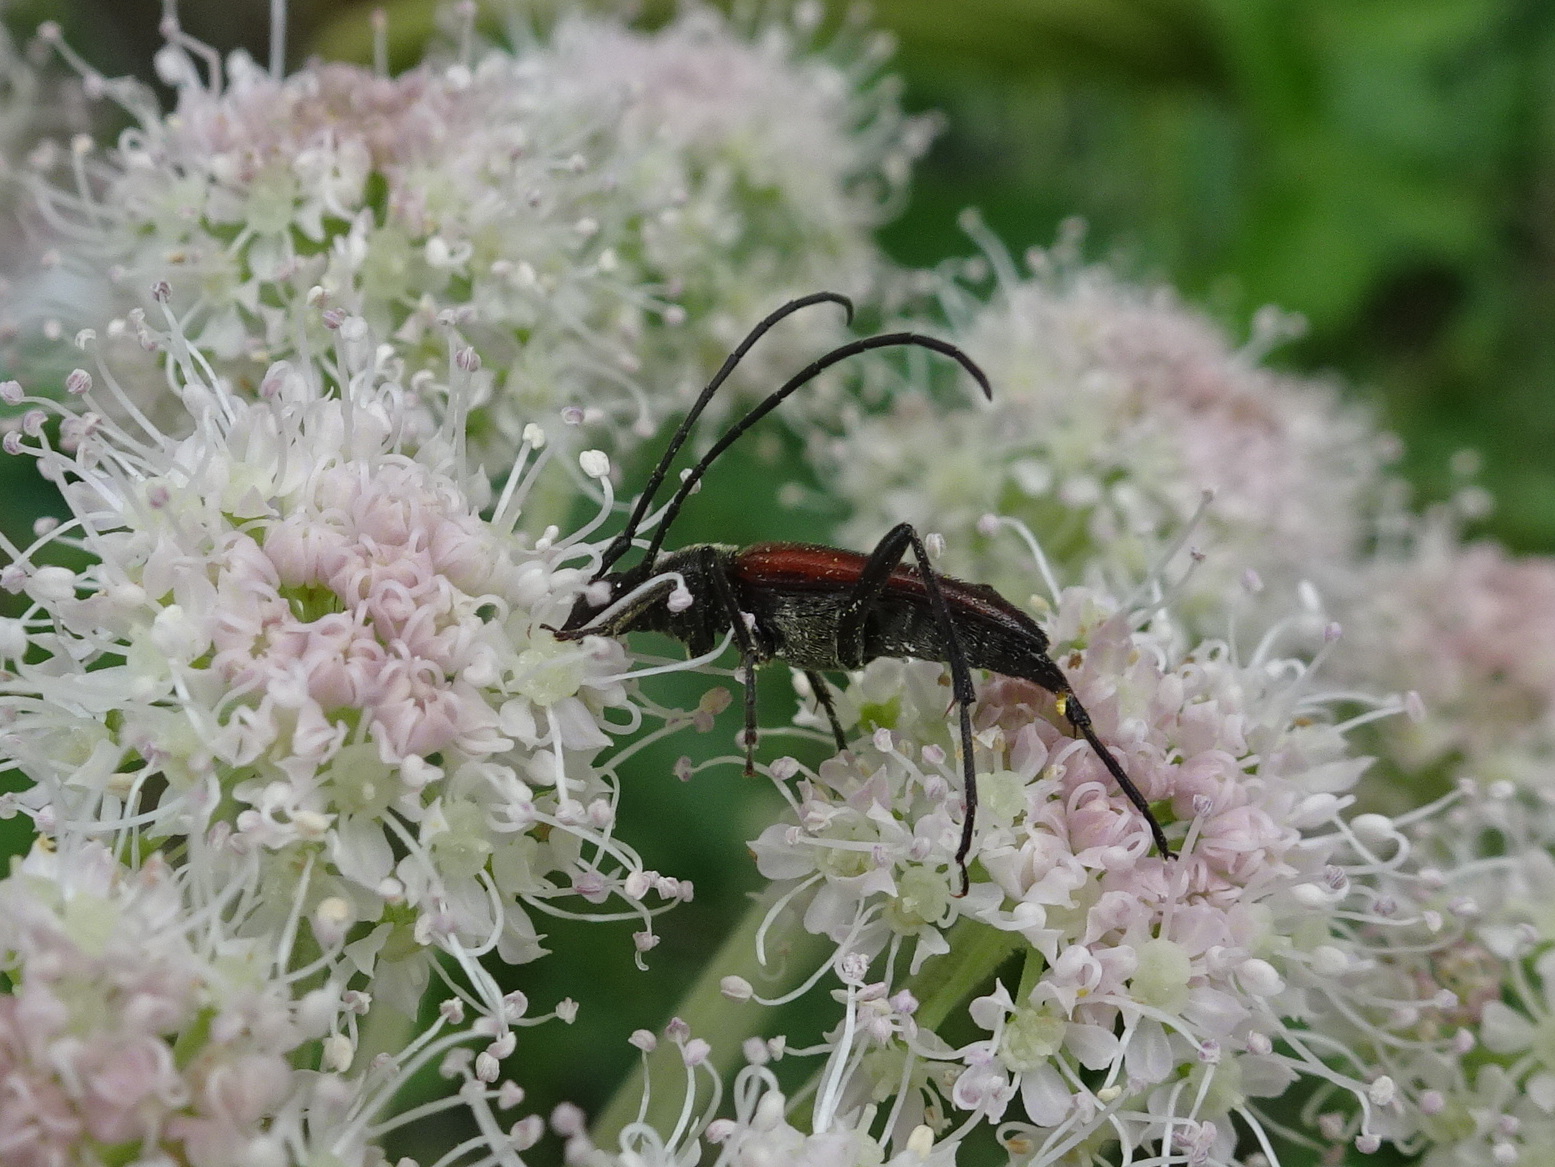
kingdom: Animalia
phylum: Arthropoda
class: Insecta
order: Coleoptera
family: Cerambycidae
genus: Stenurella
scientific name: Stenurella melanura
